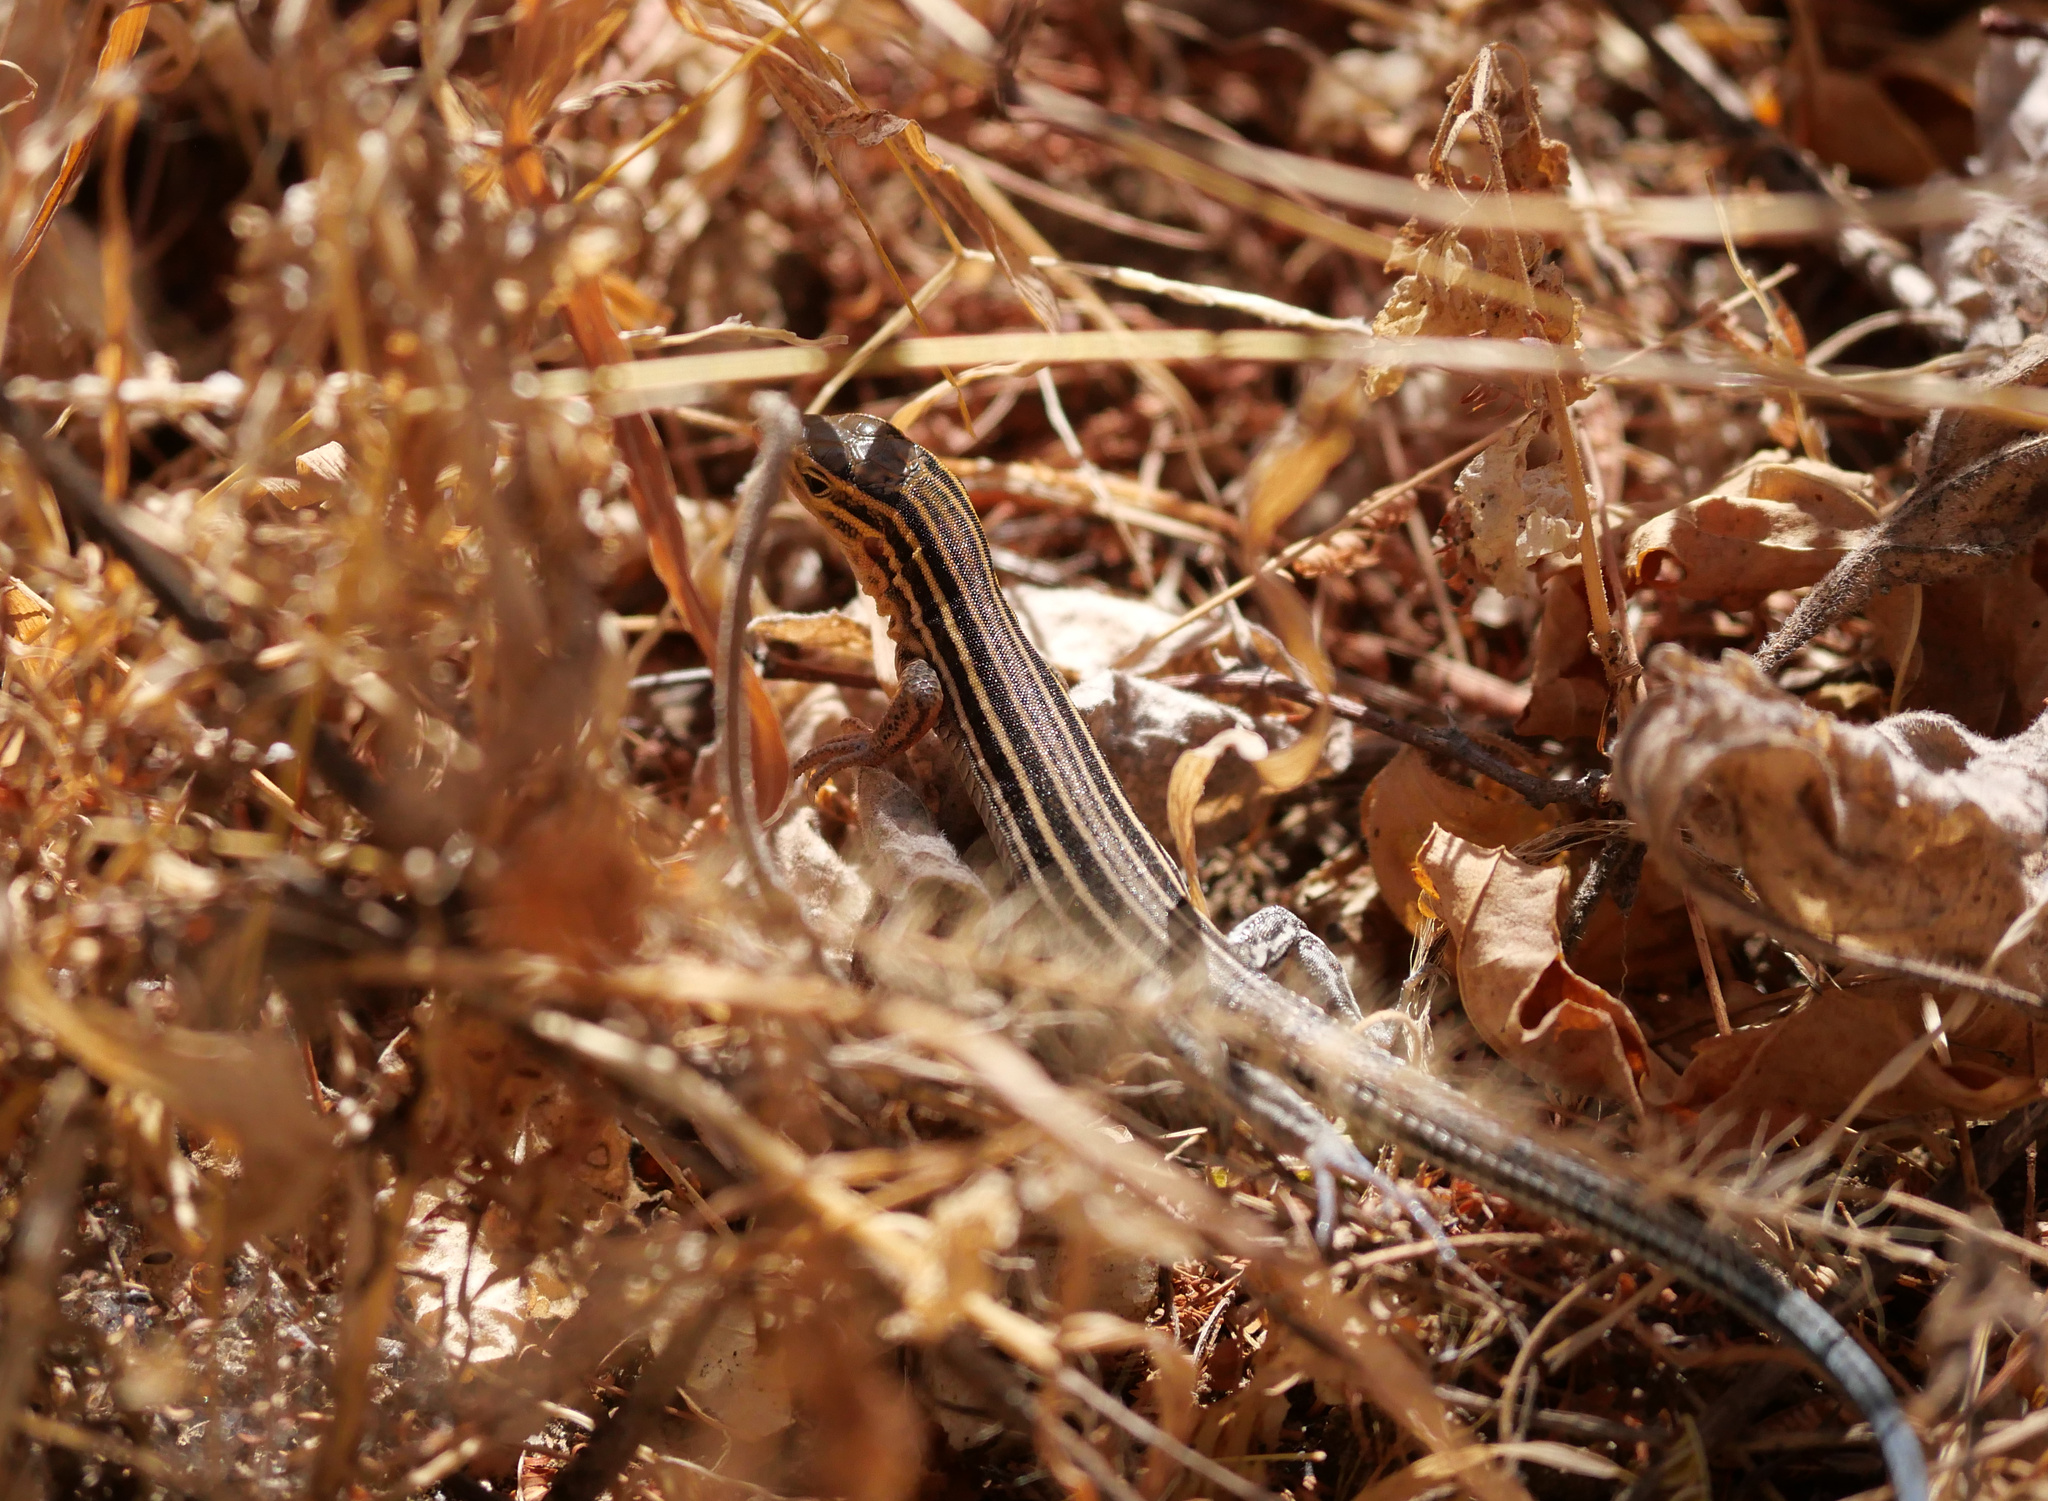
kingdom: Animalia
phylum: Chordata
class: Squamata
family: Teiidae
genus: Aspidoscelis
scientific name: Aspidoscelis hyperythrus
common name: Orange-throated race-runner
